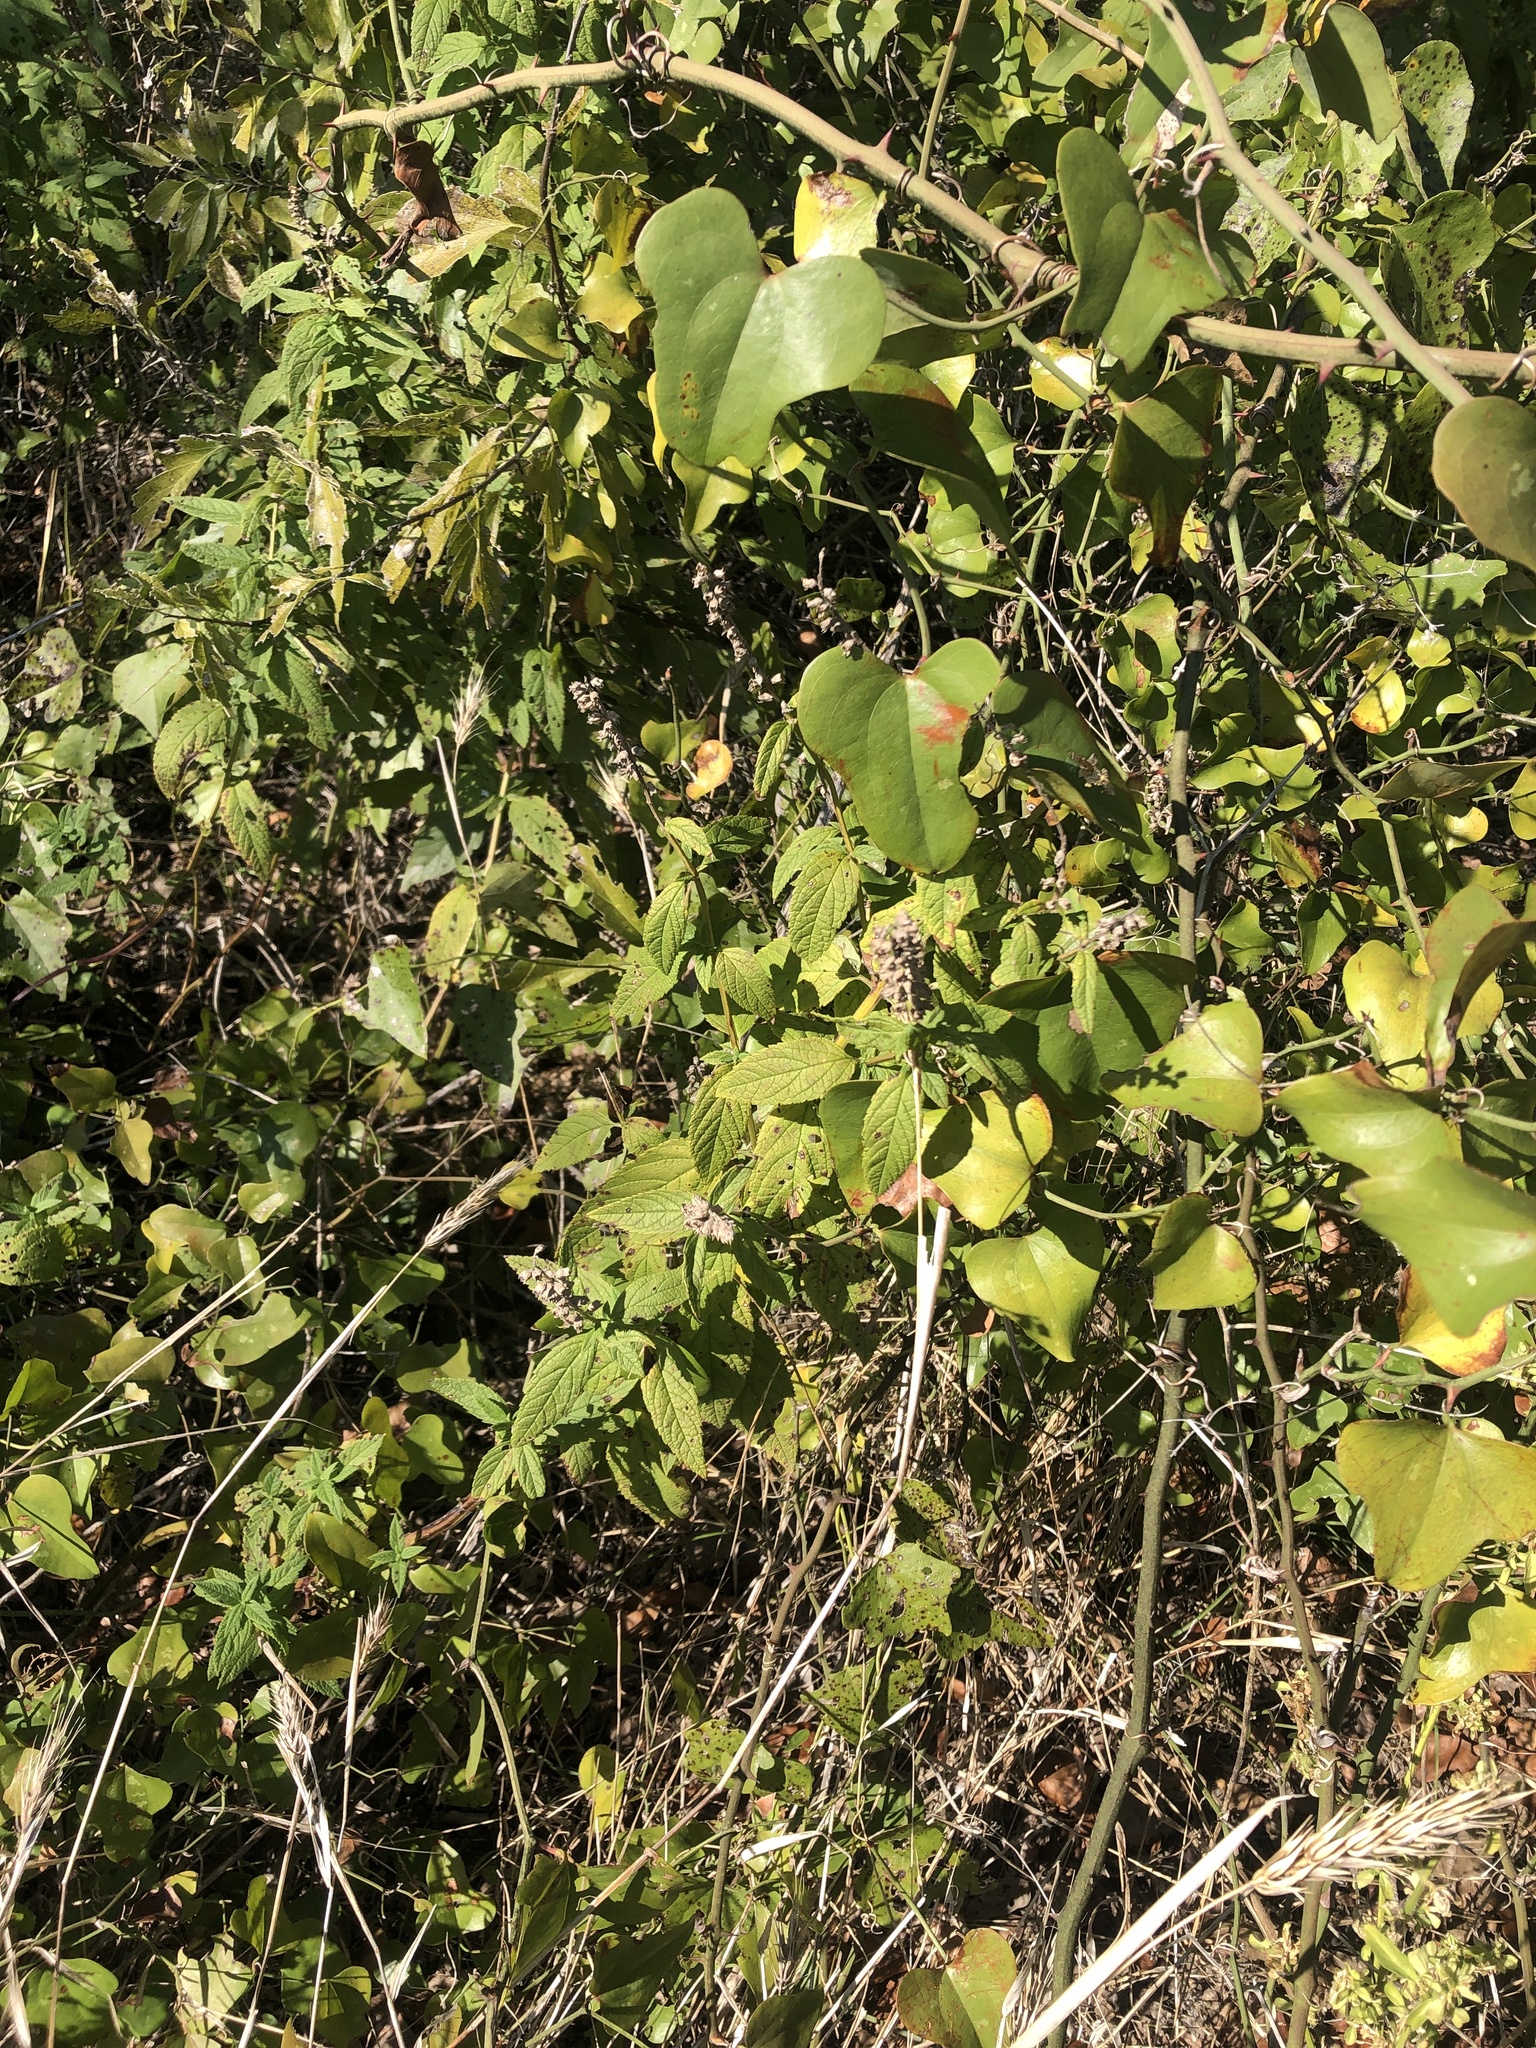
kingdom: Plantae
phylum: Tracheophyta
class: Magnoliopsida
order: Lamiales
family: Lamiaceae
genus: Teucrium
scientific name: Teucrium canadense
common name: American germander
